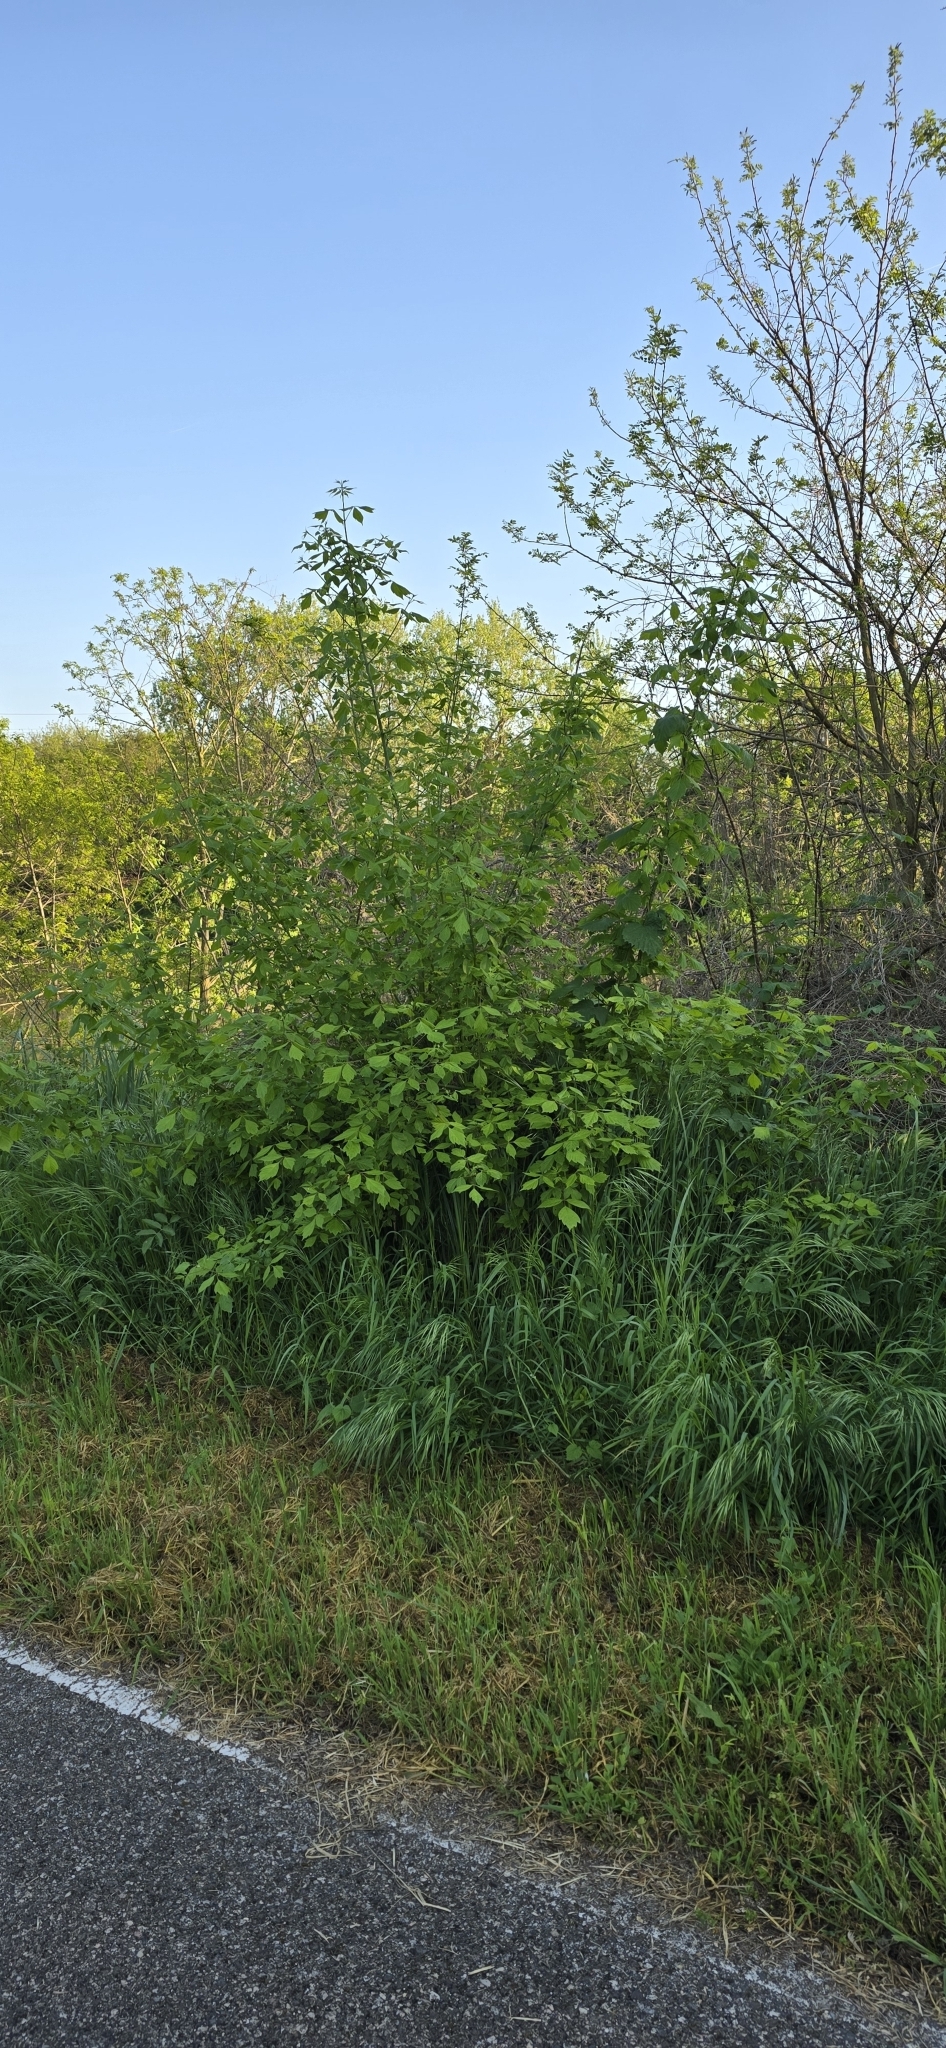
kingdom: Plantae
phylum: Tracheophyta
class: Magnoliopsida
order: Sapindales
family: Sapindaceae
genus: Acer
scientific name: Acer negundo
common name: Ashleaf maple
